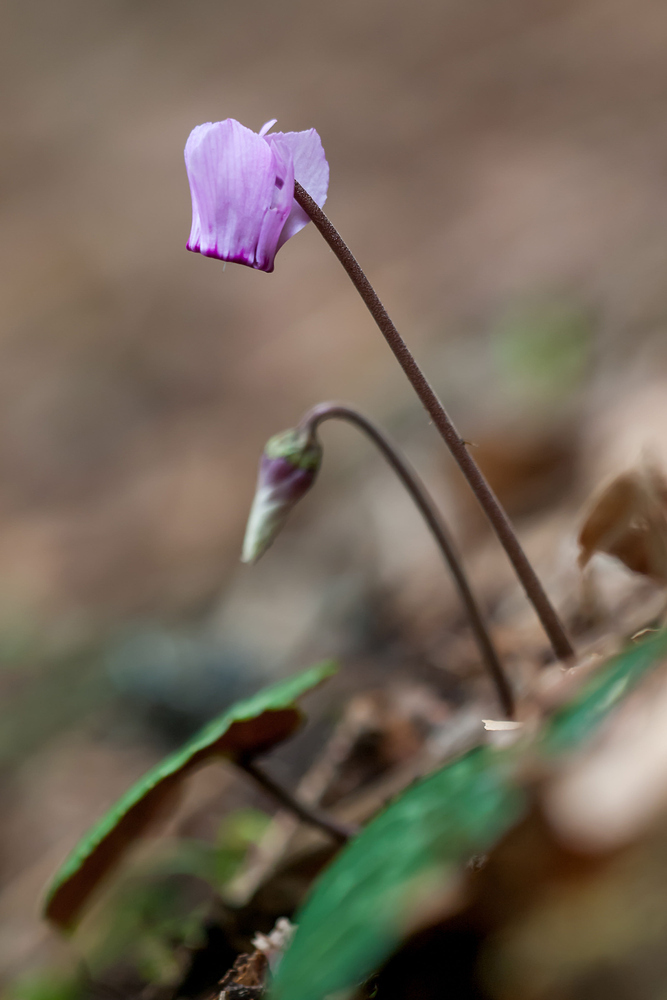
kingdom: Plantae
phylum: Tracheophyta
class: Magnoliopsida
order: Ericales
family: Primulaceae
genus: Cyclamen
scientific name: Cyclamen purpurascens
